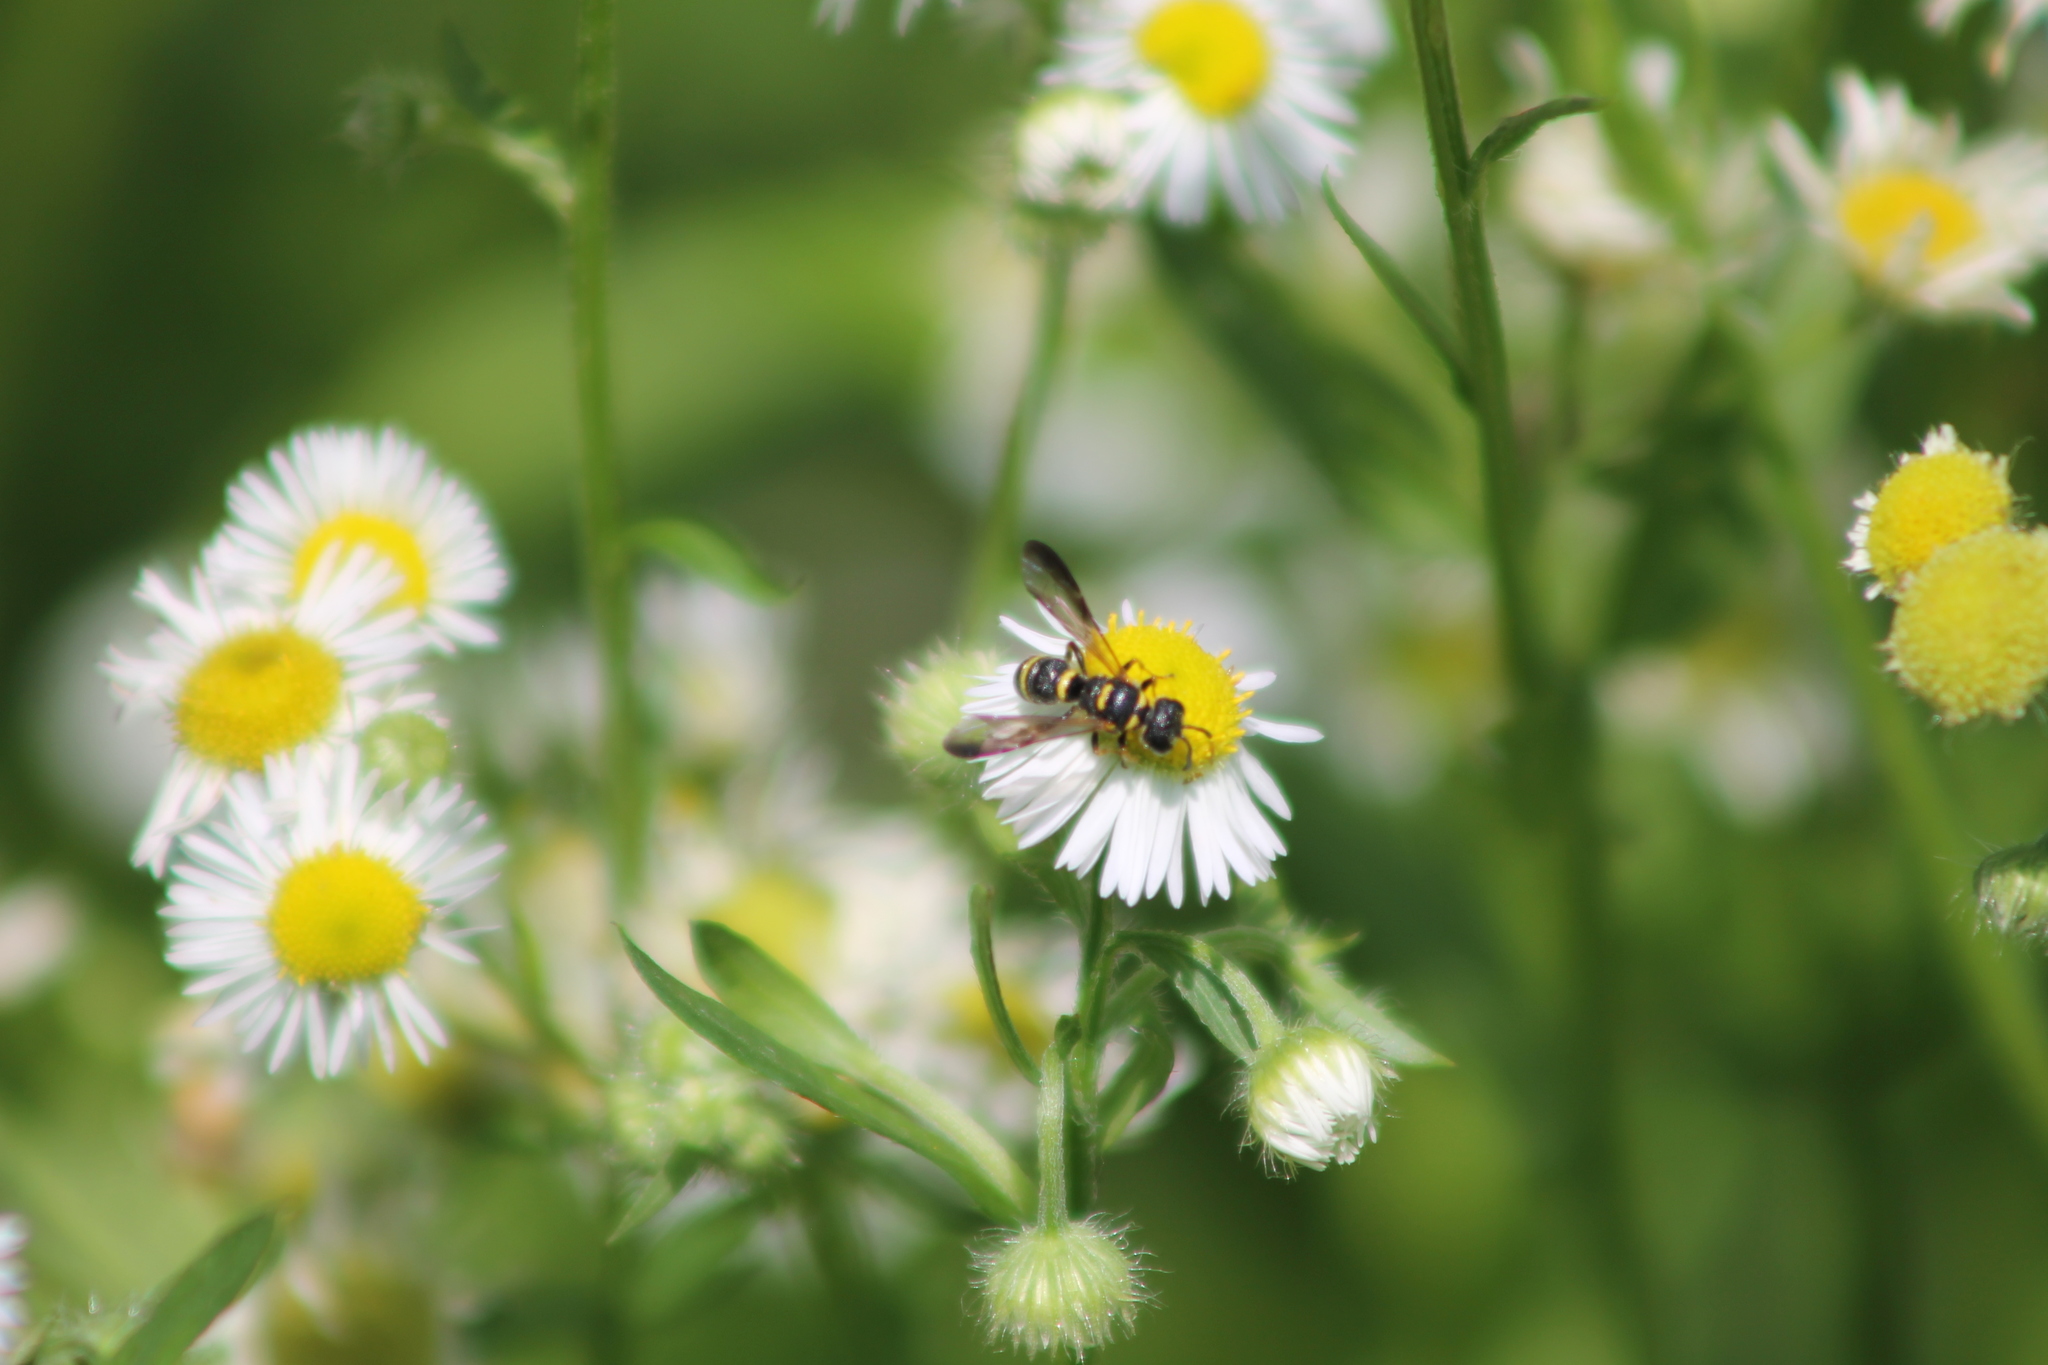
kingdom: Animalia
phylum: Arthropoda
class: Insecta
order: Hymenoptera
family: Crabronidae
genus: Cerceris
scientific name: Cerceris insolita
